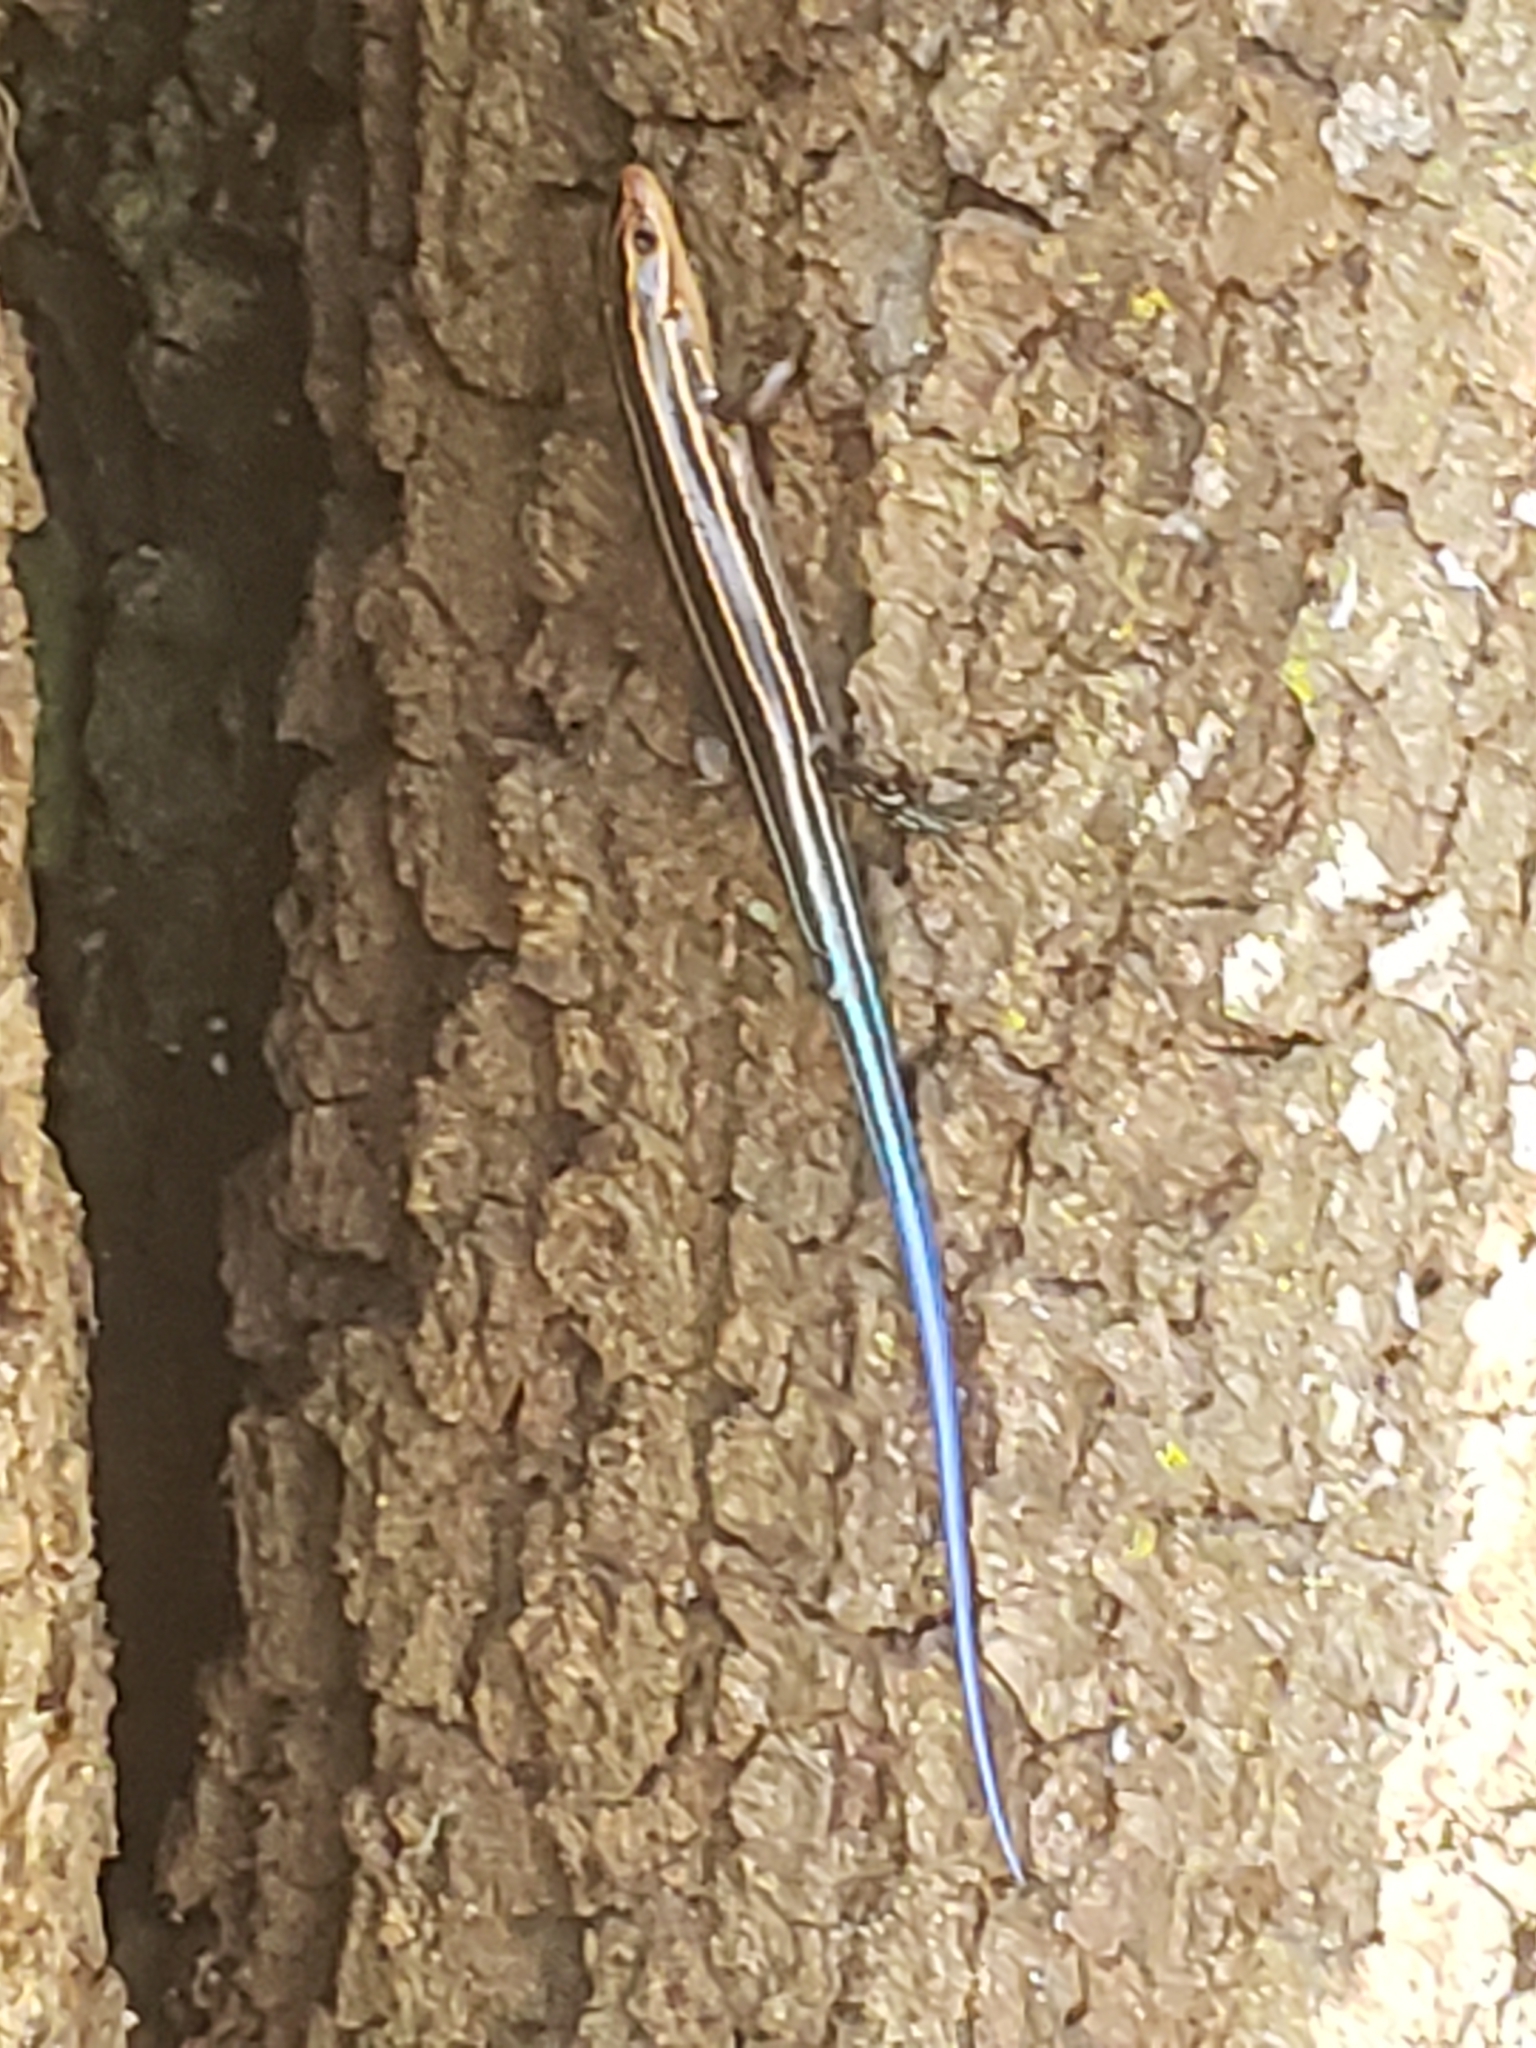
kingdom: Animalia
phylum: Chordata
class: Squamata
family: Scincidae
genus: Plestiodon
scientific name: Plestiodon laticeps
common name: Broadhead skink
